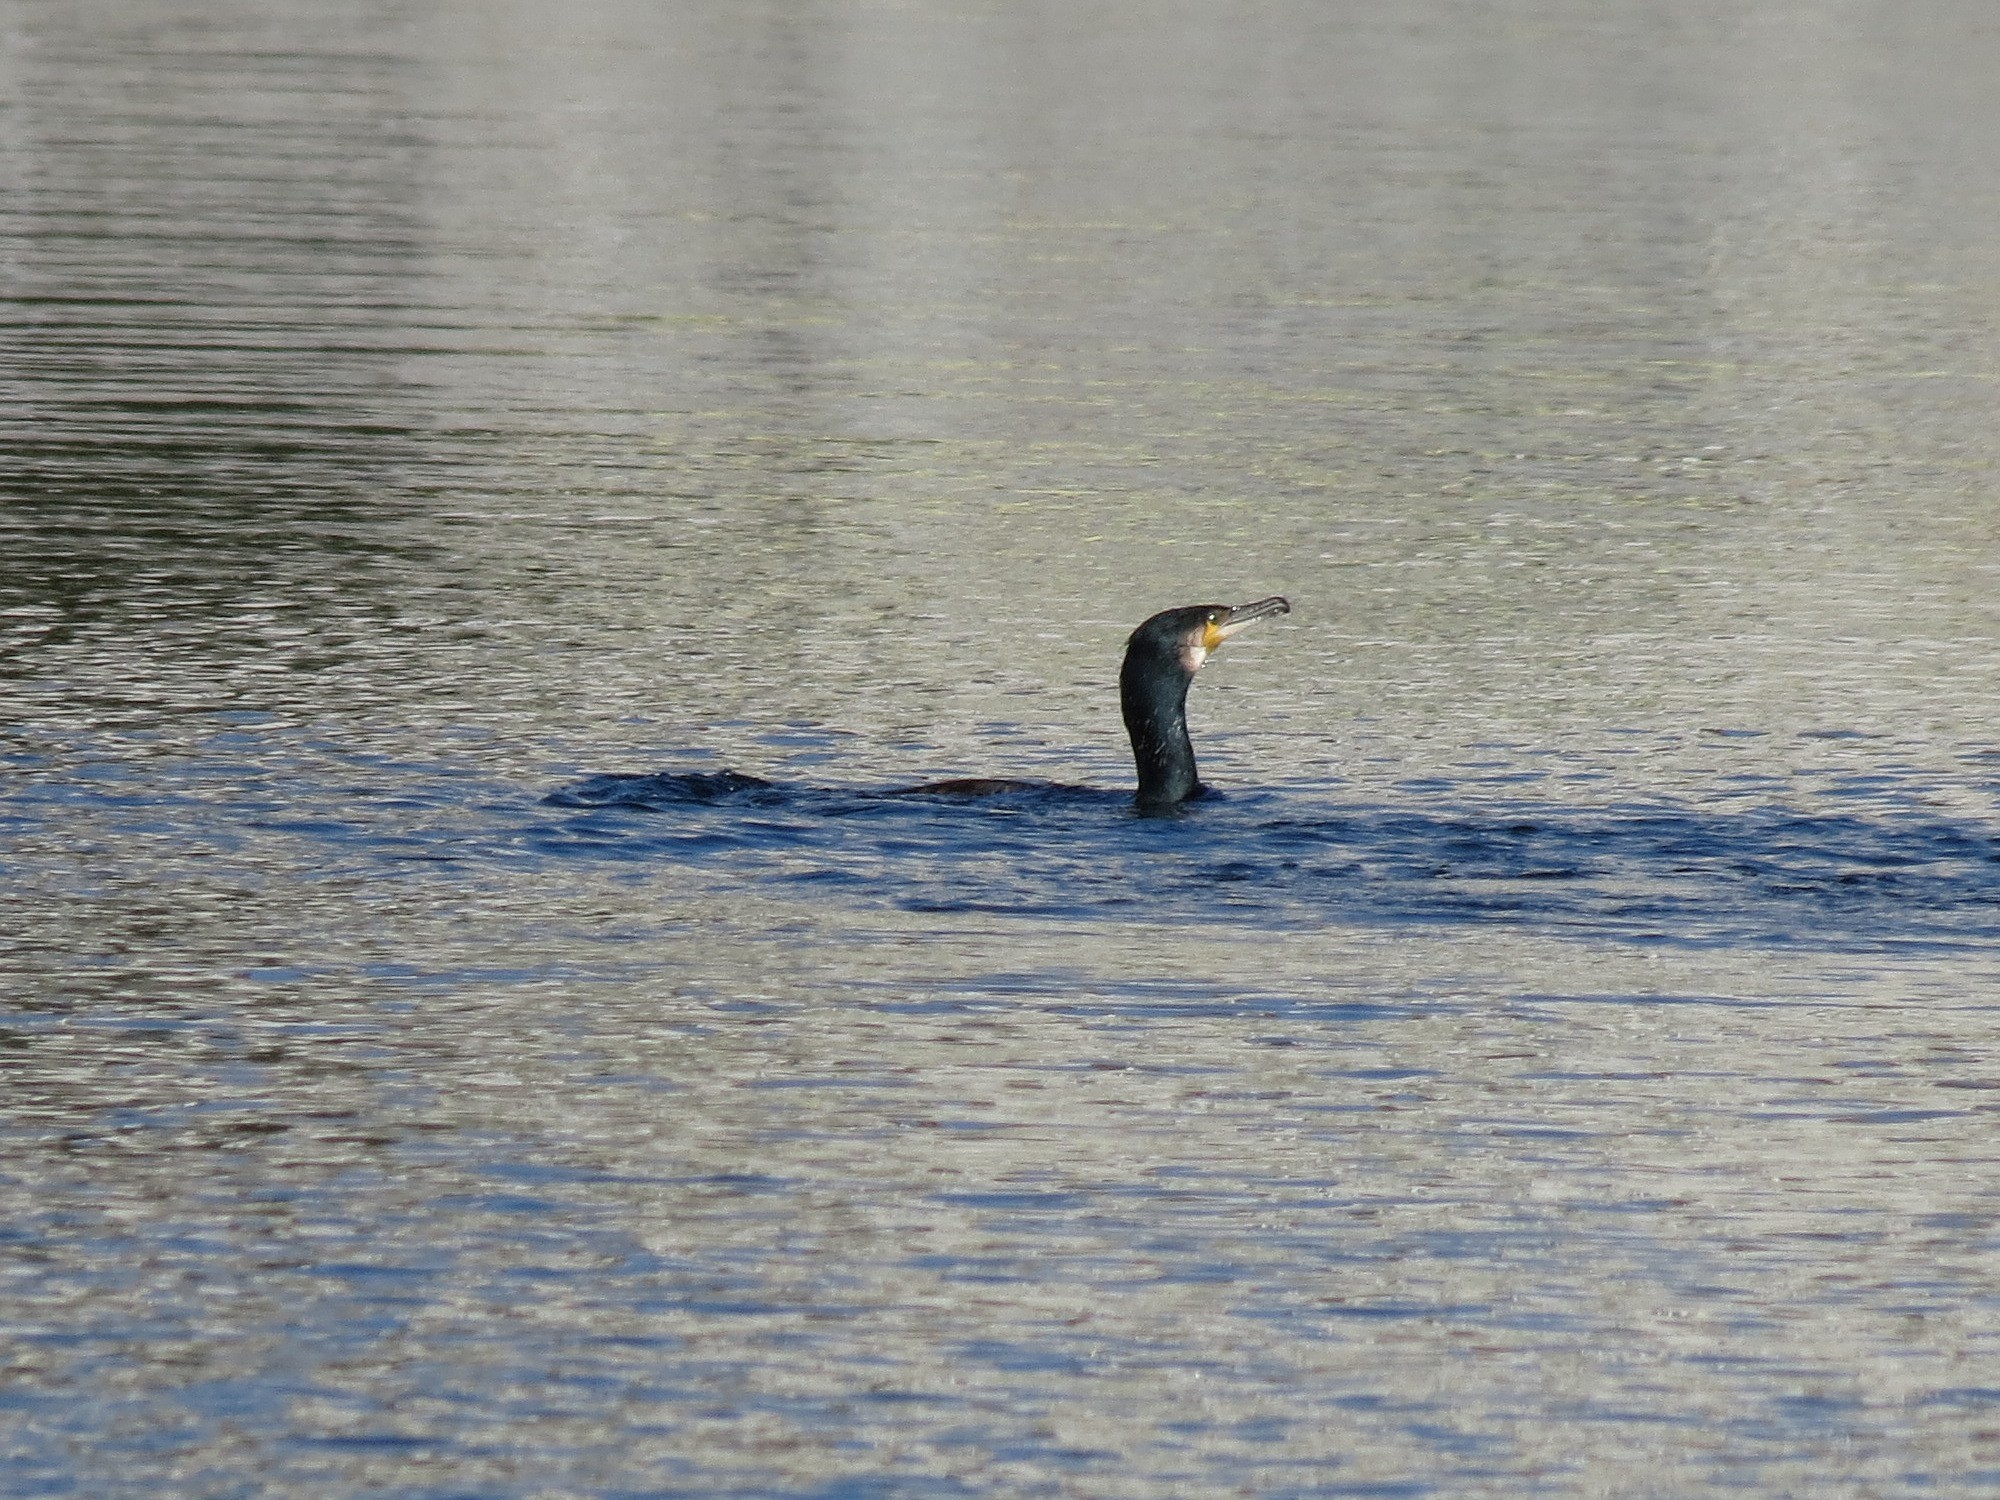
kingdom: Animalia
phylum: Chordata
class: Aves
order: Suliformes
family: Phalacrocoracidae
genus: Phalacrocorax
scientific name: Phalacrocorax carbo
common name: Great cormorant
